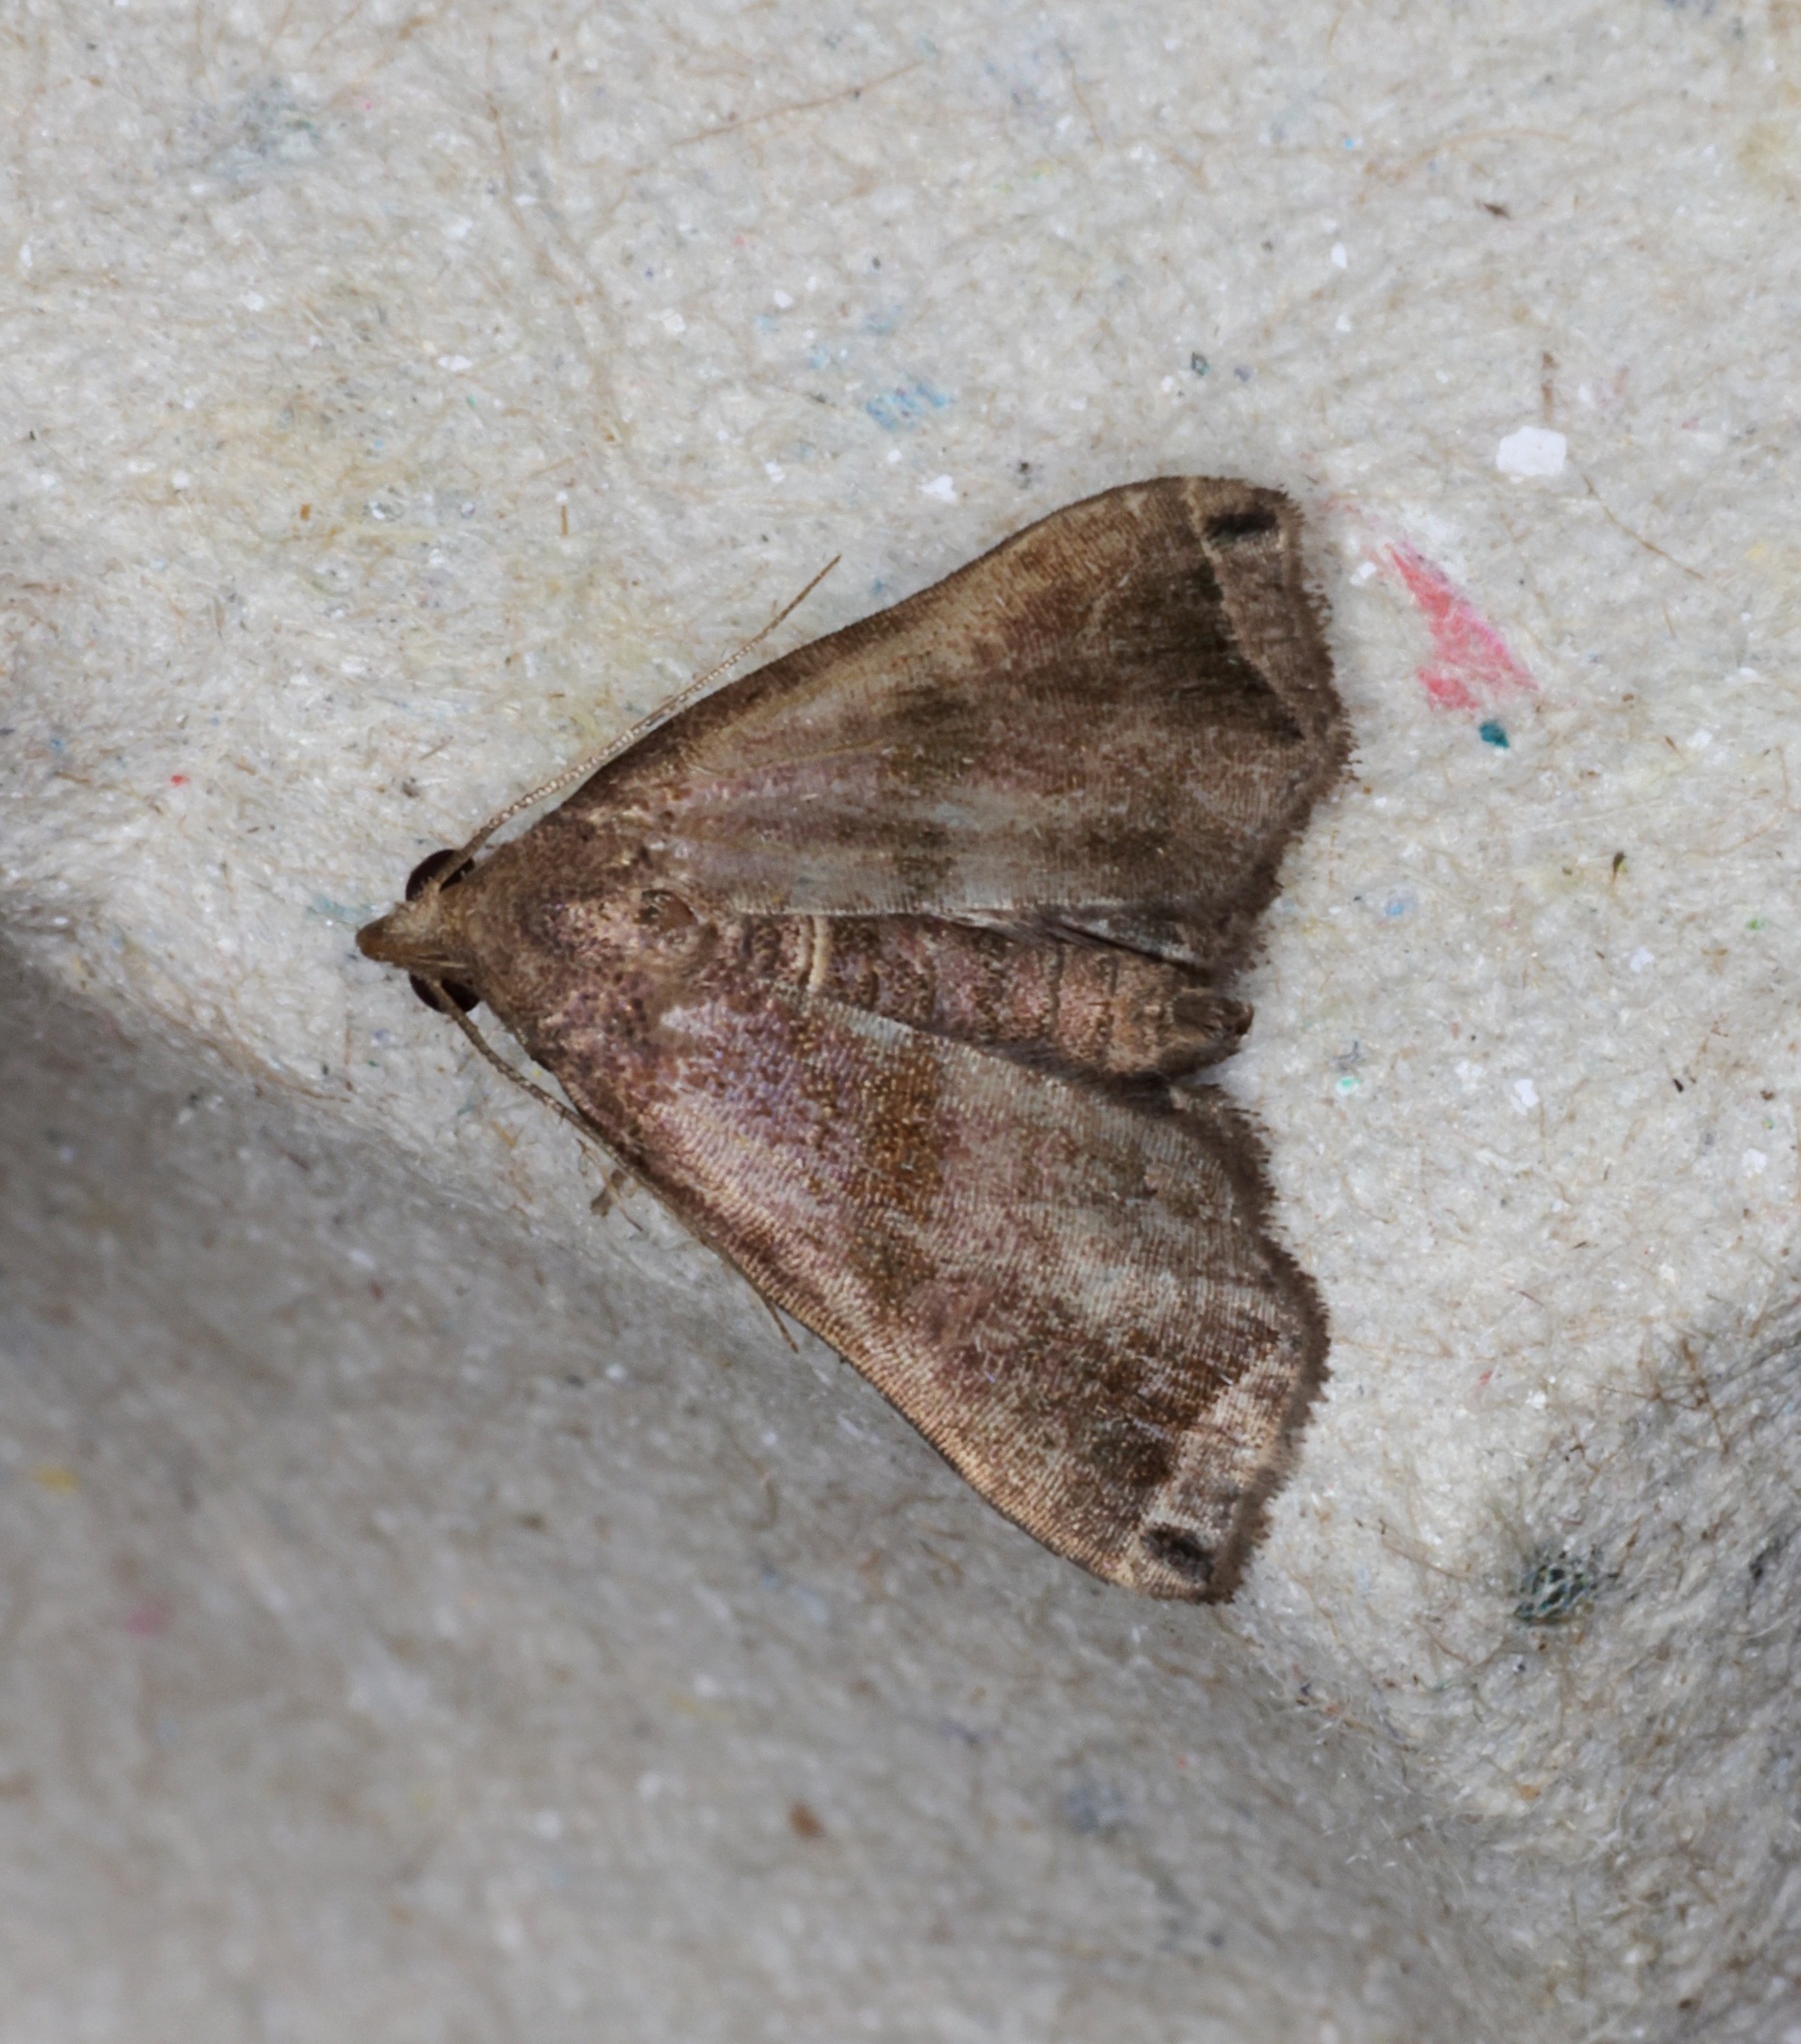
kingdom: Animalia
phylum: Arthropoda
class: Insecta
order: Lepidoptera
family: Erebidae
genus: Polypogon
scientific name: Polypogon biasalis
